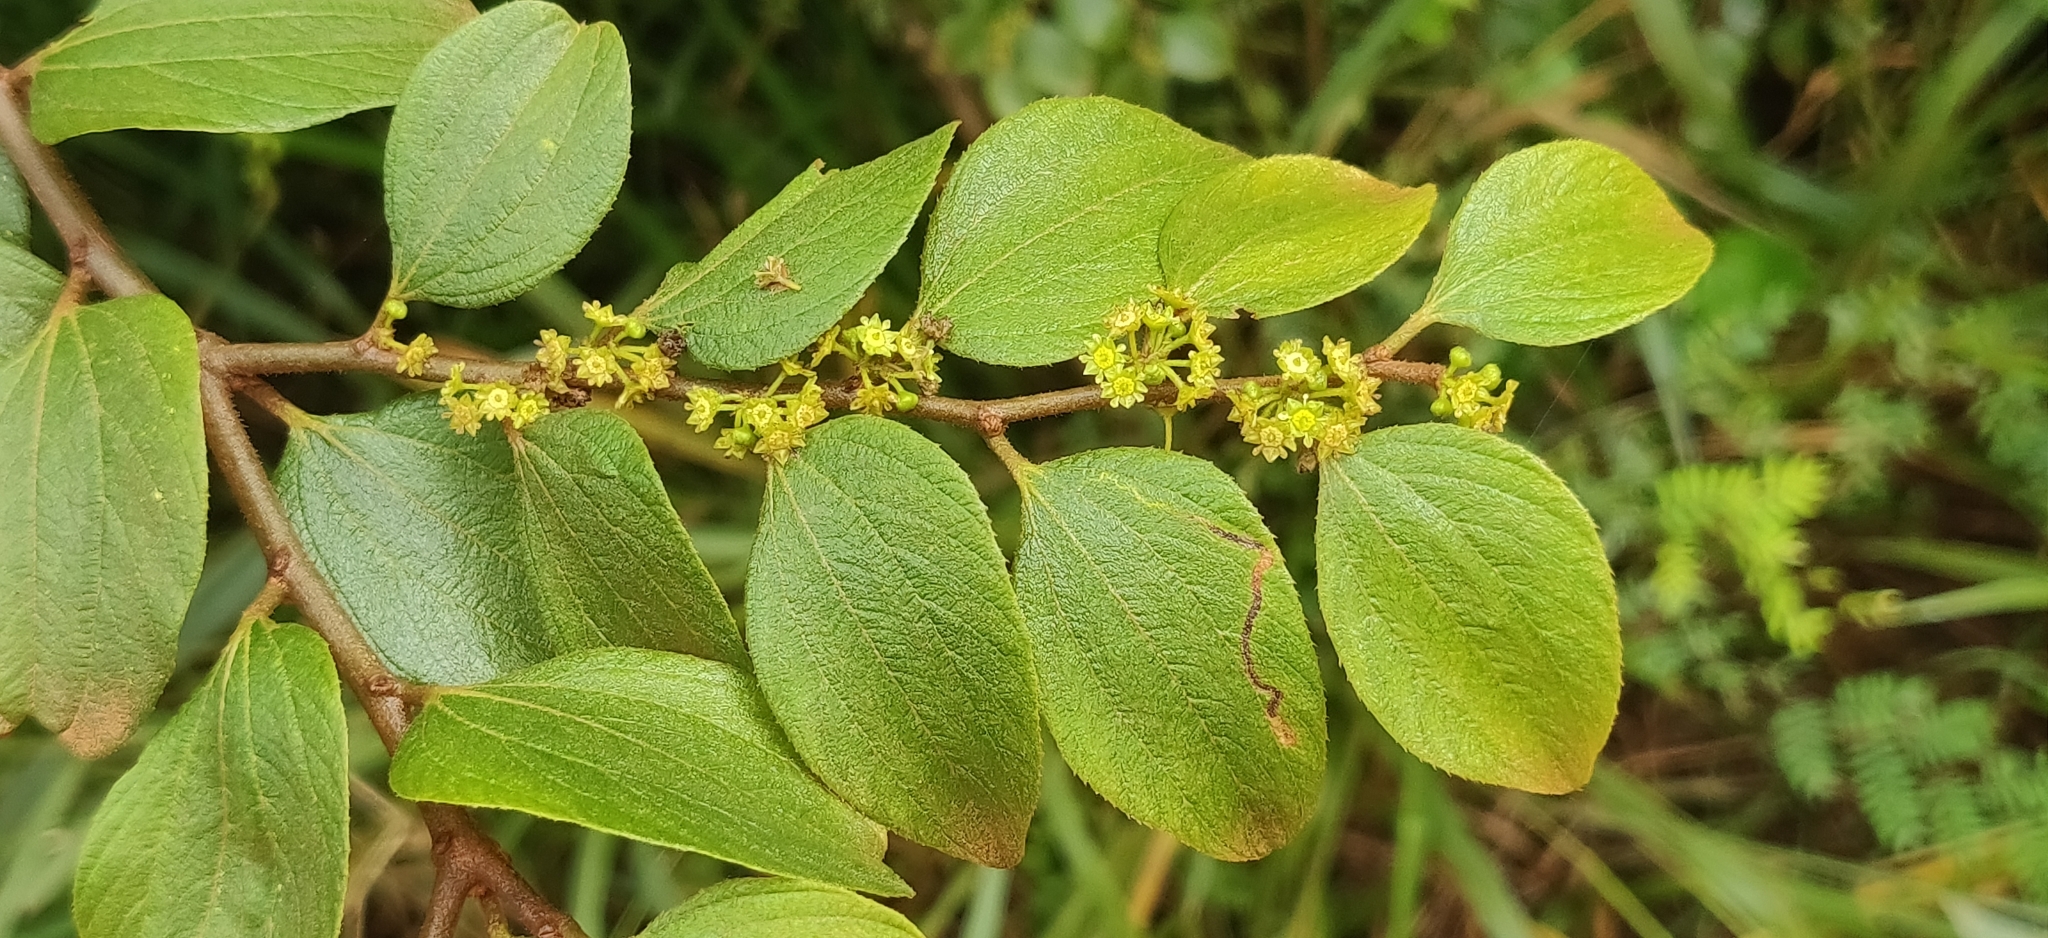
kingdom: Plantae
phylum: Tracheophyta
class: Magnoliopsida
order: Rosales
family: Rhamnaceae
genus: Ziziphus
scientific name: Ziziphus oenopolia
